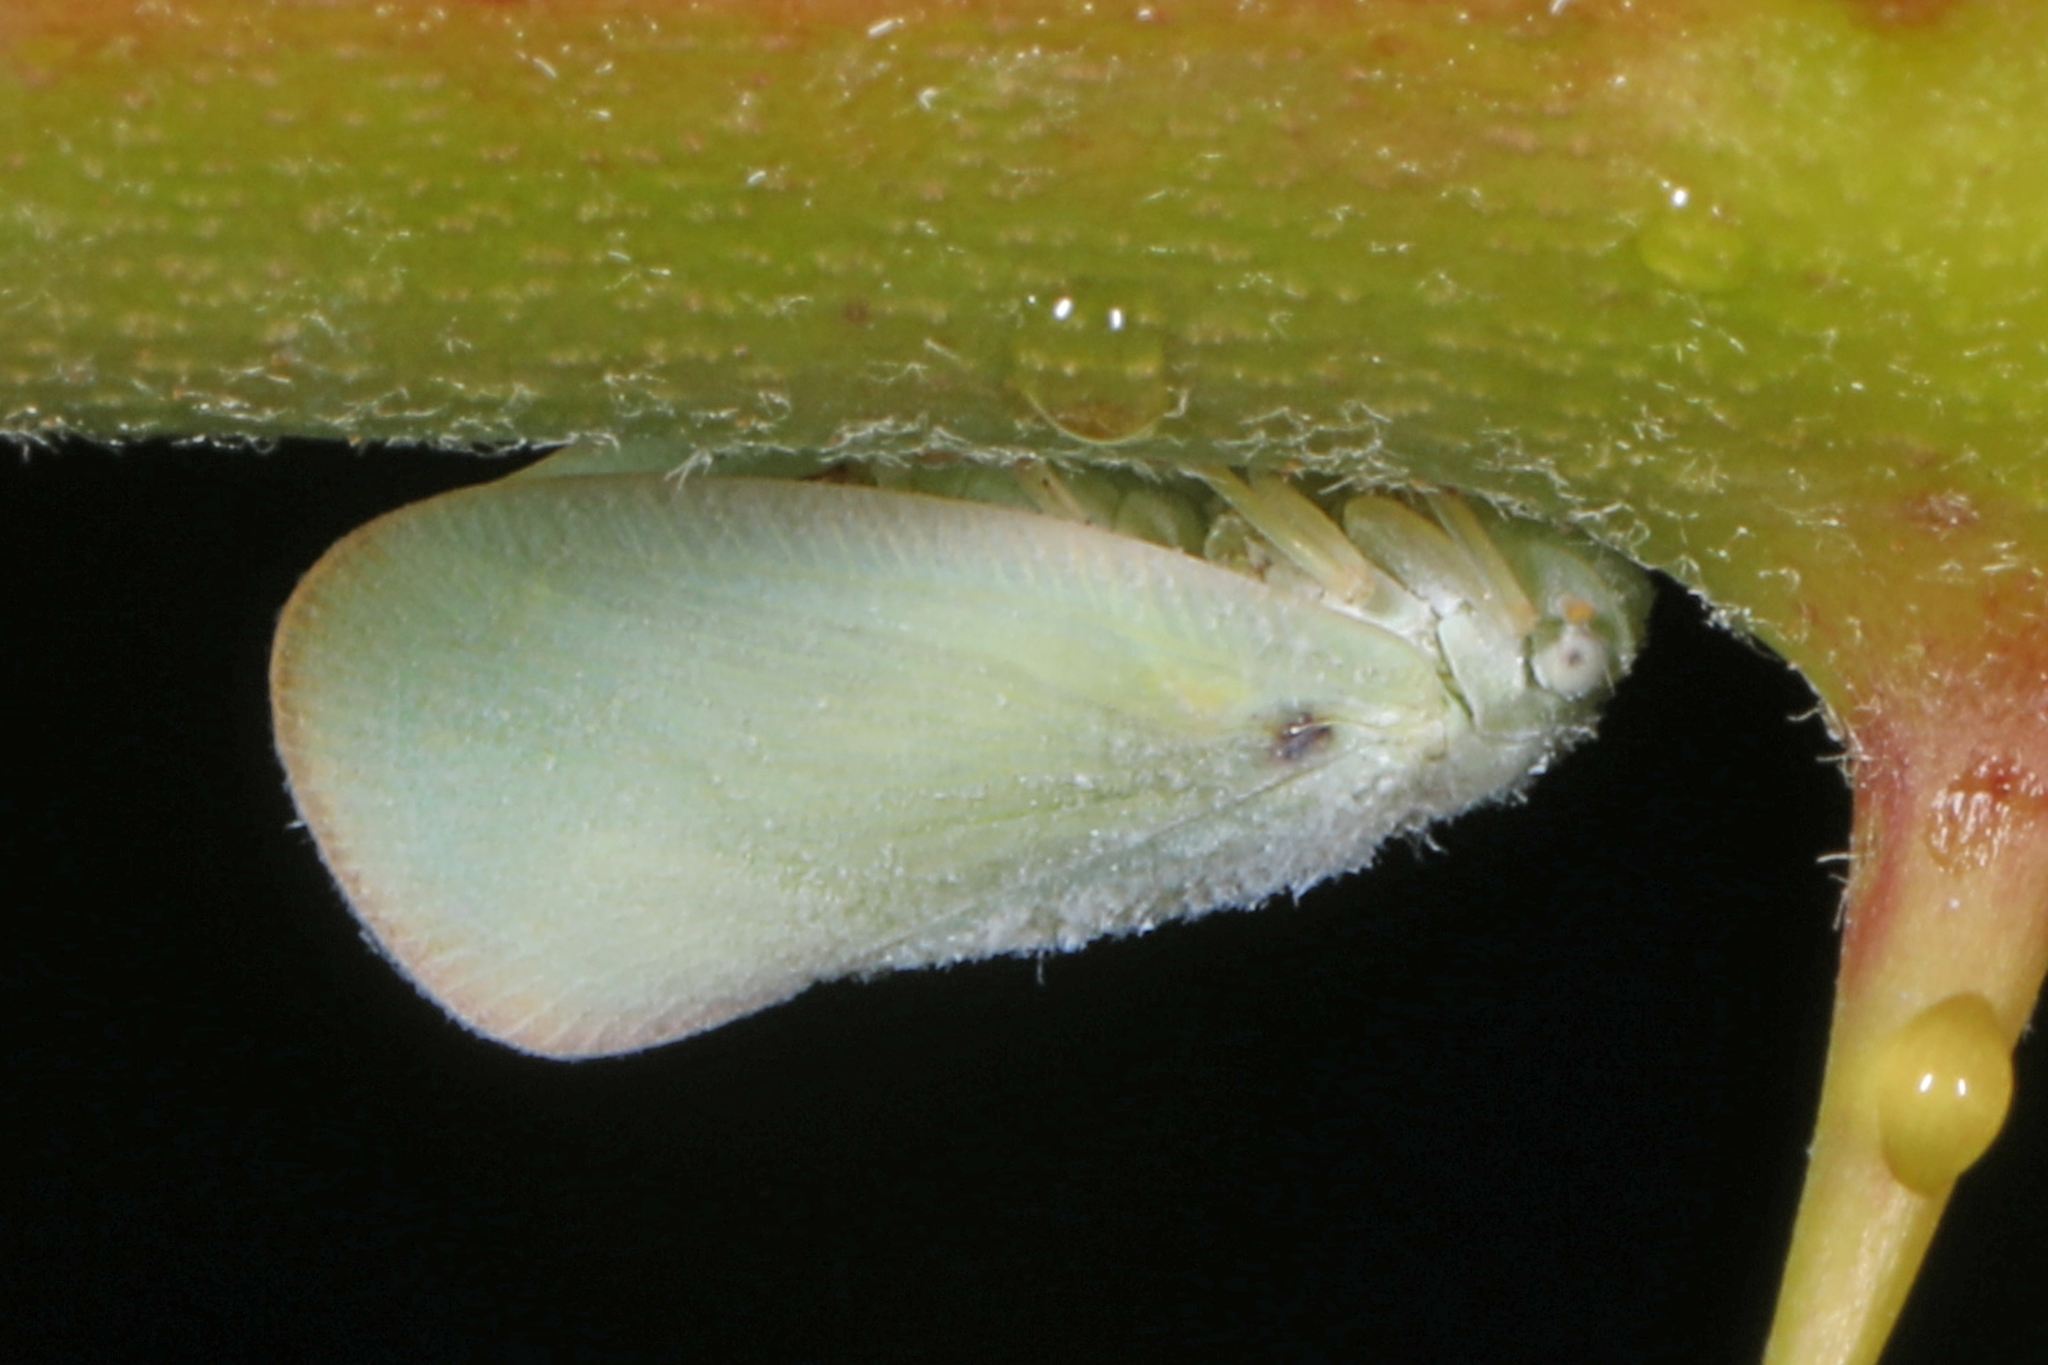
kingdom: Animalia
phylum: Arthropoda
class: Insecta
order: Hemiptera
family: Flatidae
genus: Ormenoides
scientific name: Ormenoides venusta
